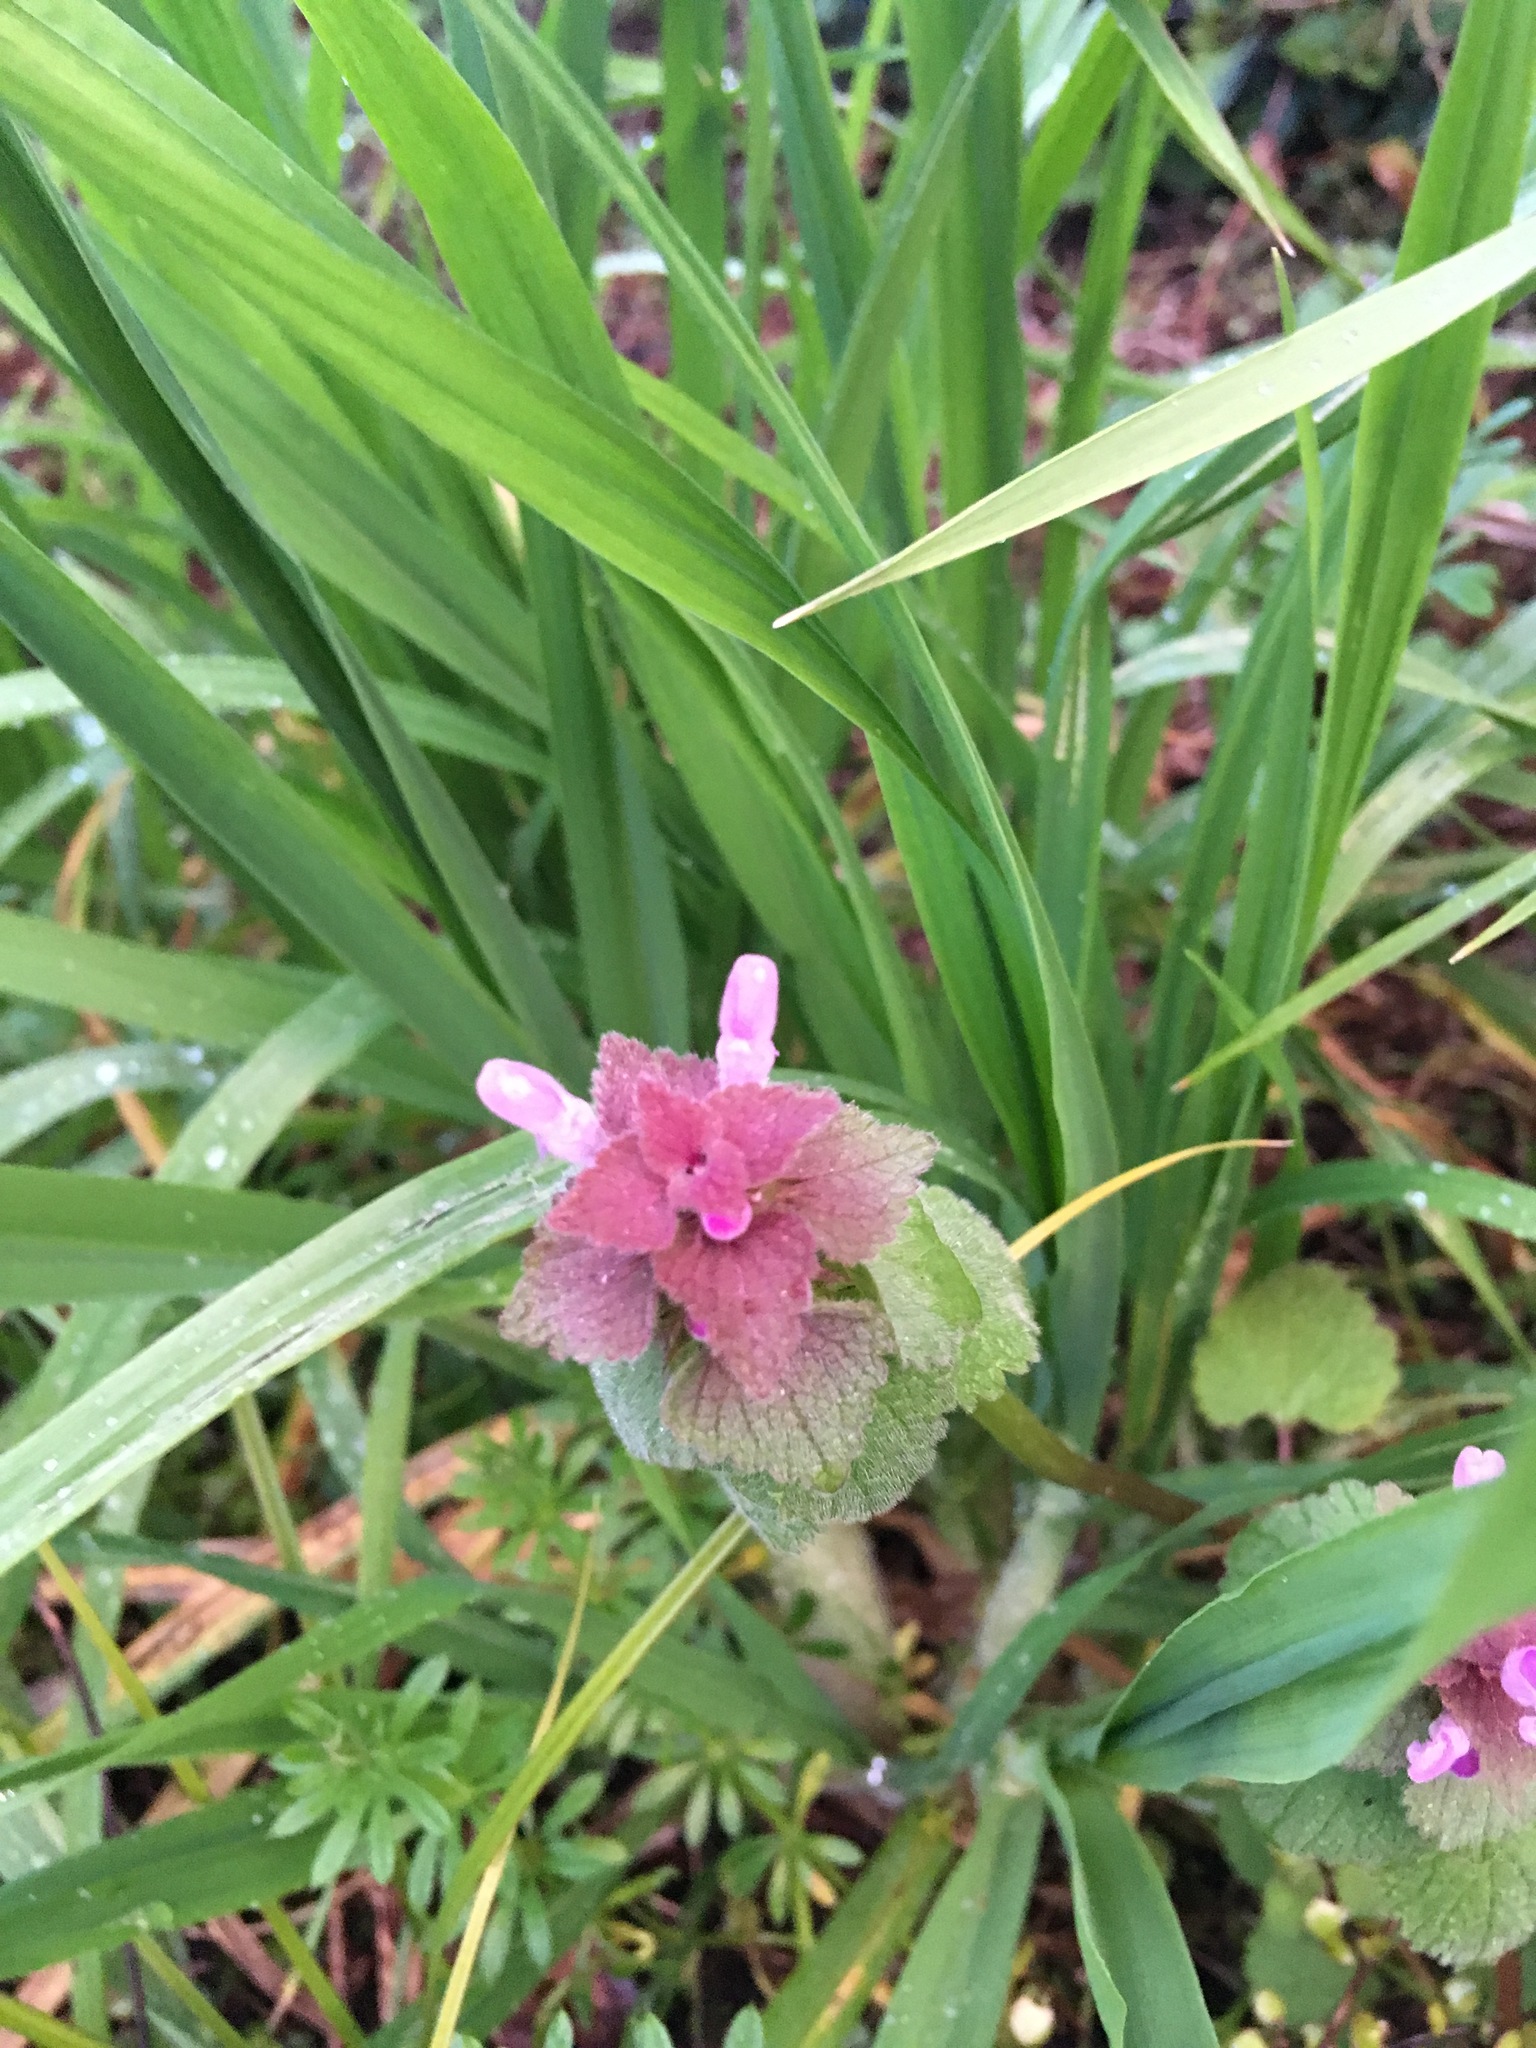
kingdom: Plantae
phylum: Tracheophyta
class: Magnoliopsida
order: Lamiales
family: Lamiaceae
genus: Lamium
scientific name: Lamium purpureum
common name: Red dead-nettle
